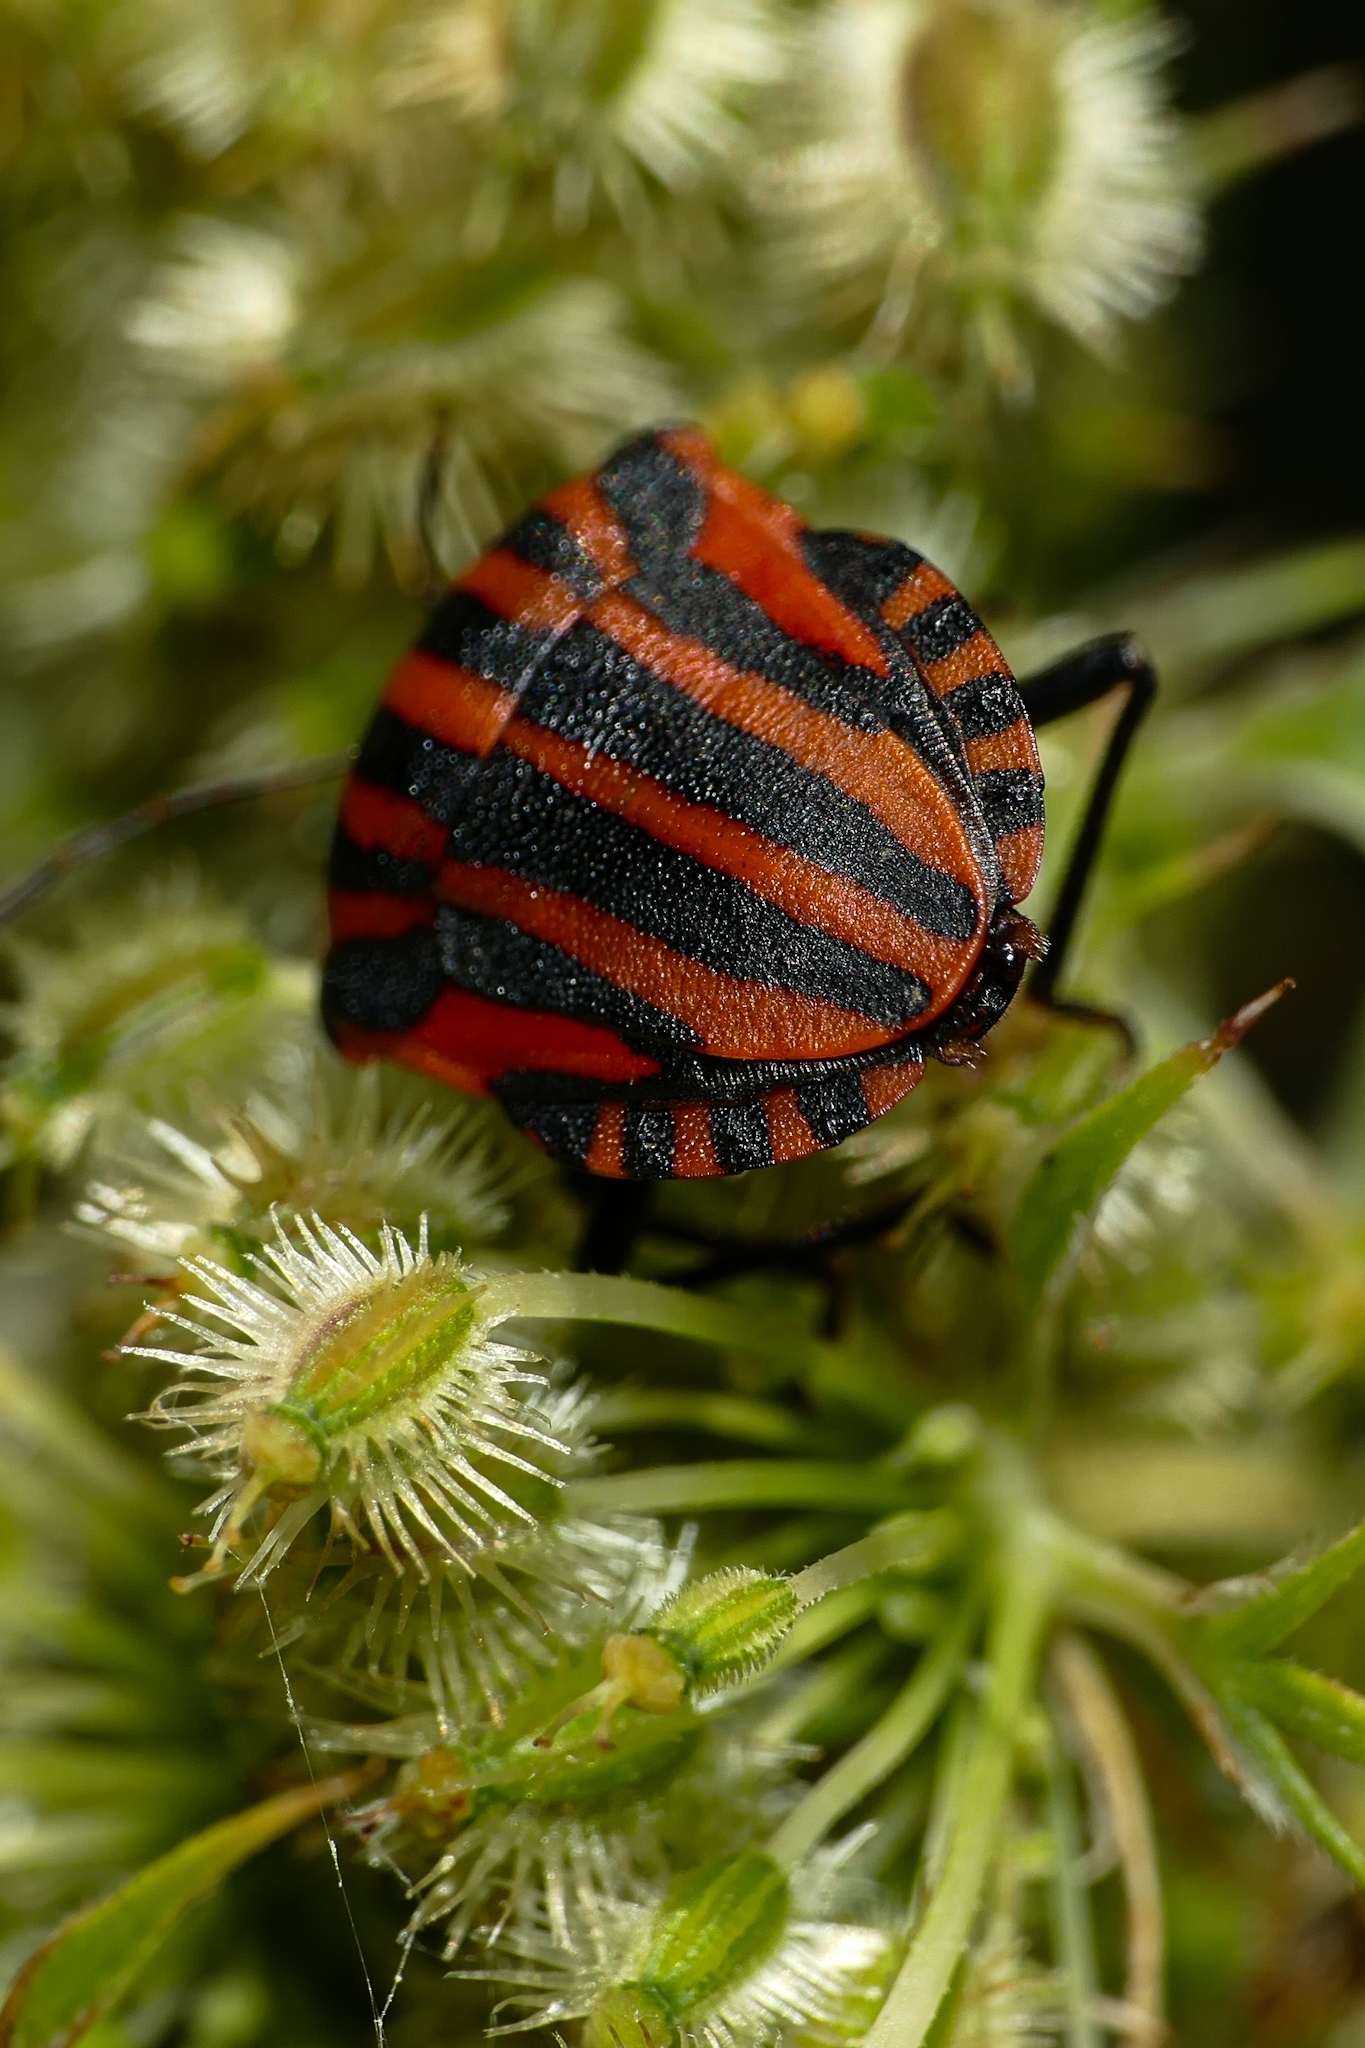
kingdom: Animalia
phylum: Arthropoda
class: Insecta
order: Hemiptera
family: Pentatomidae
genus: Graphosoma
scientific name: Graphosoma italicum
